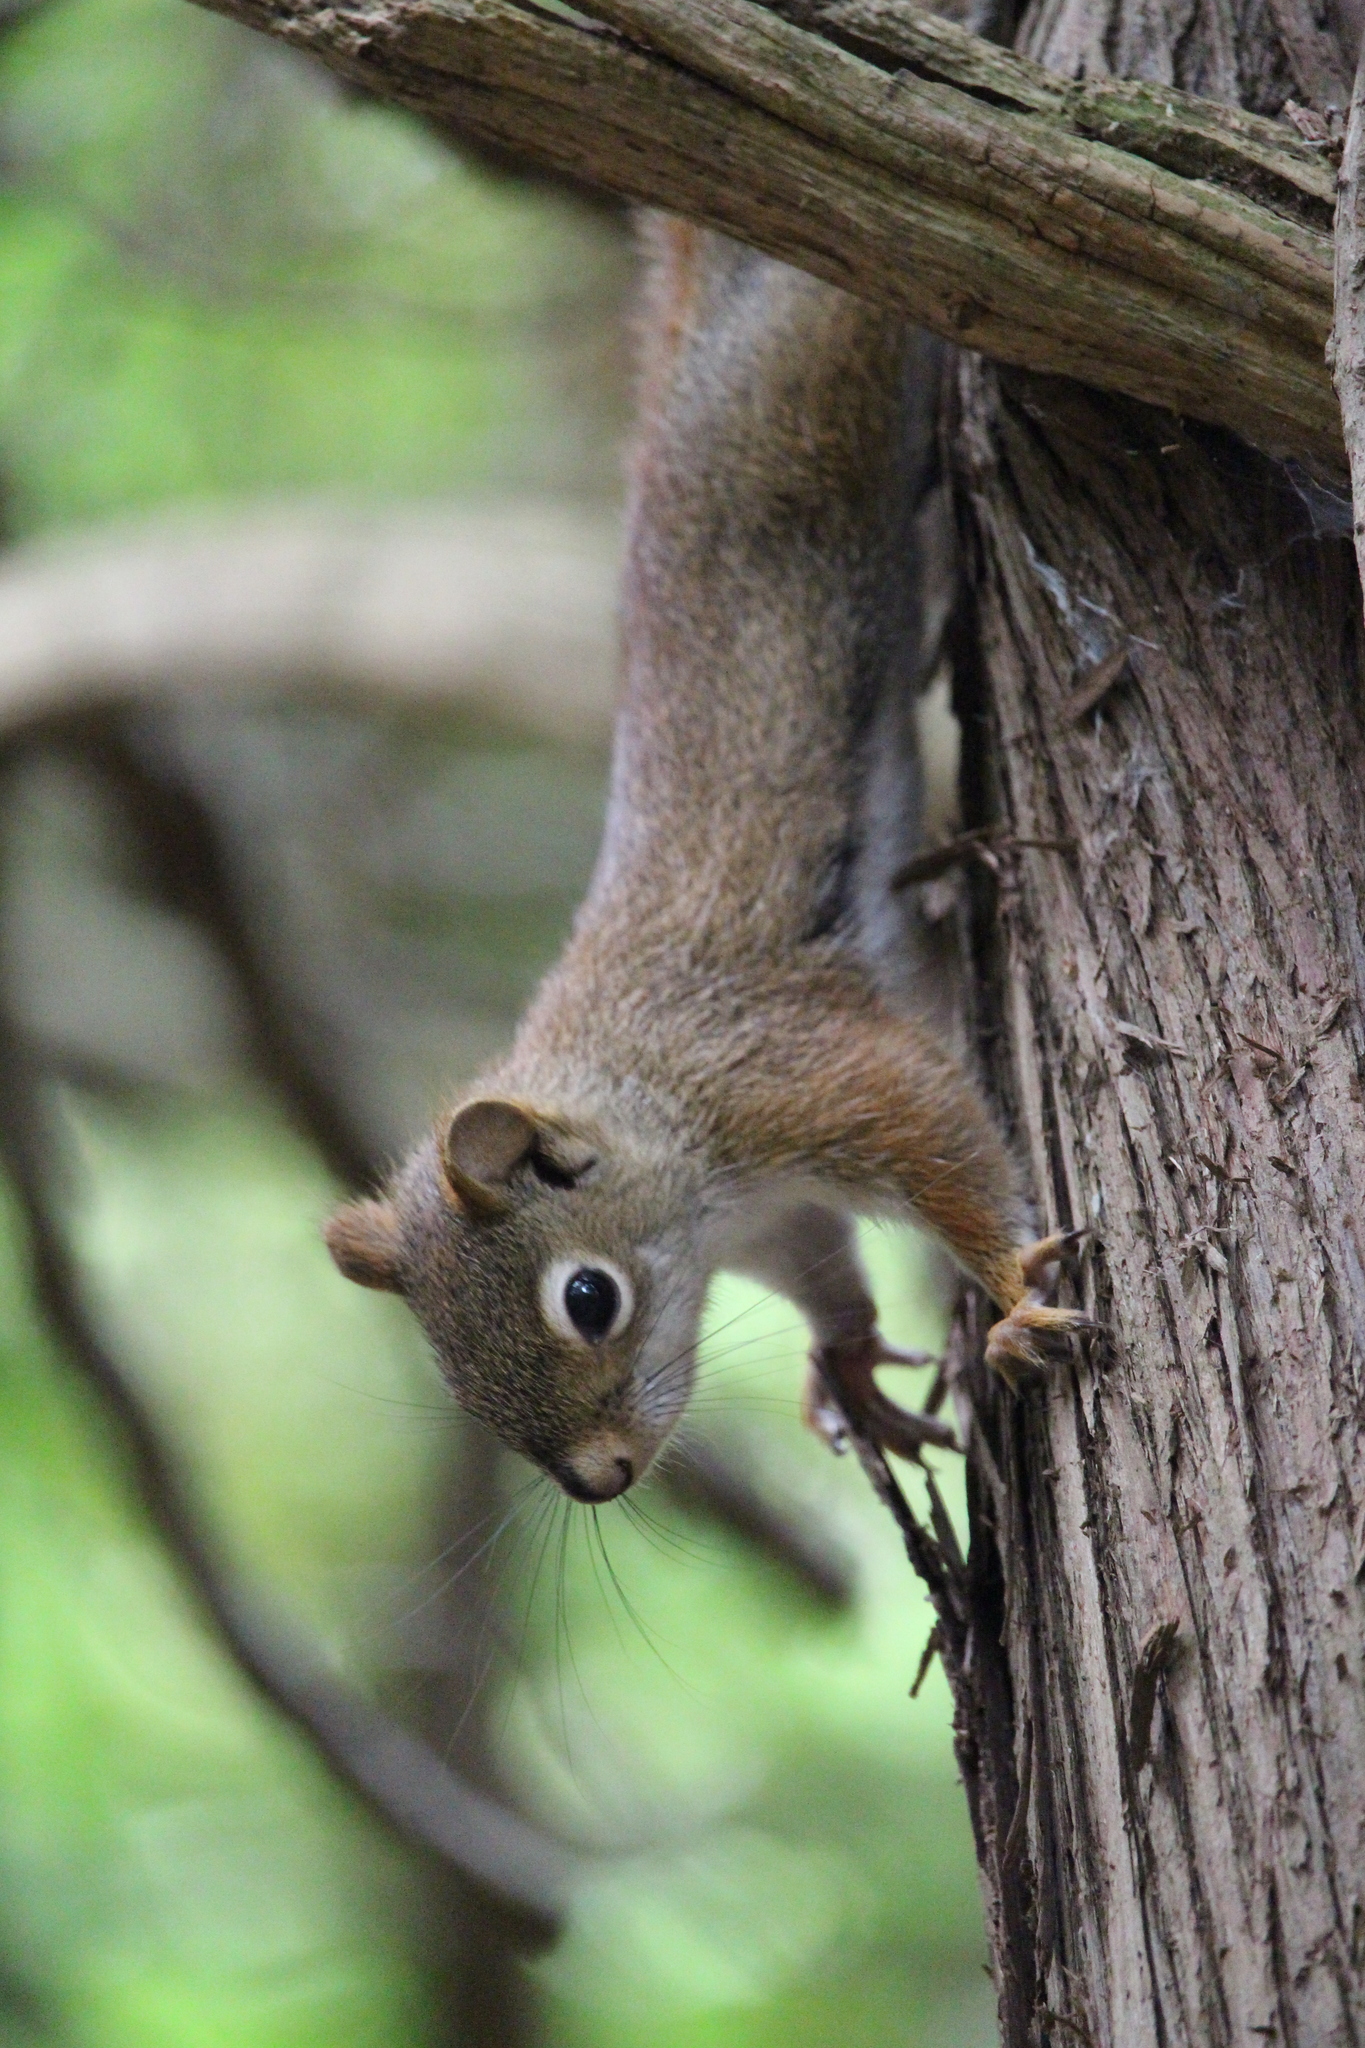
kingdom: Animalia
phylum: Chordata
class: Mammalia
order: Rodentia
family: Sciuridae
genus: Tamiasciurus
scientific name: Tamiasciurus hudsonicus
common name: Red squirrel
